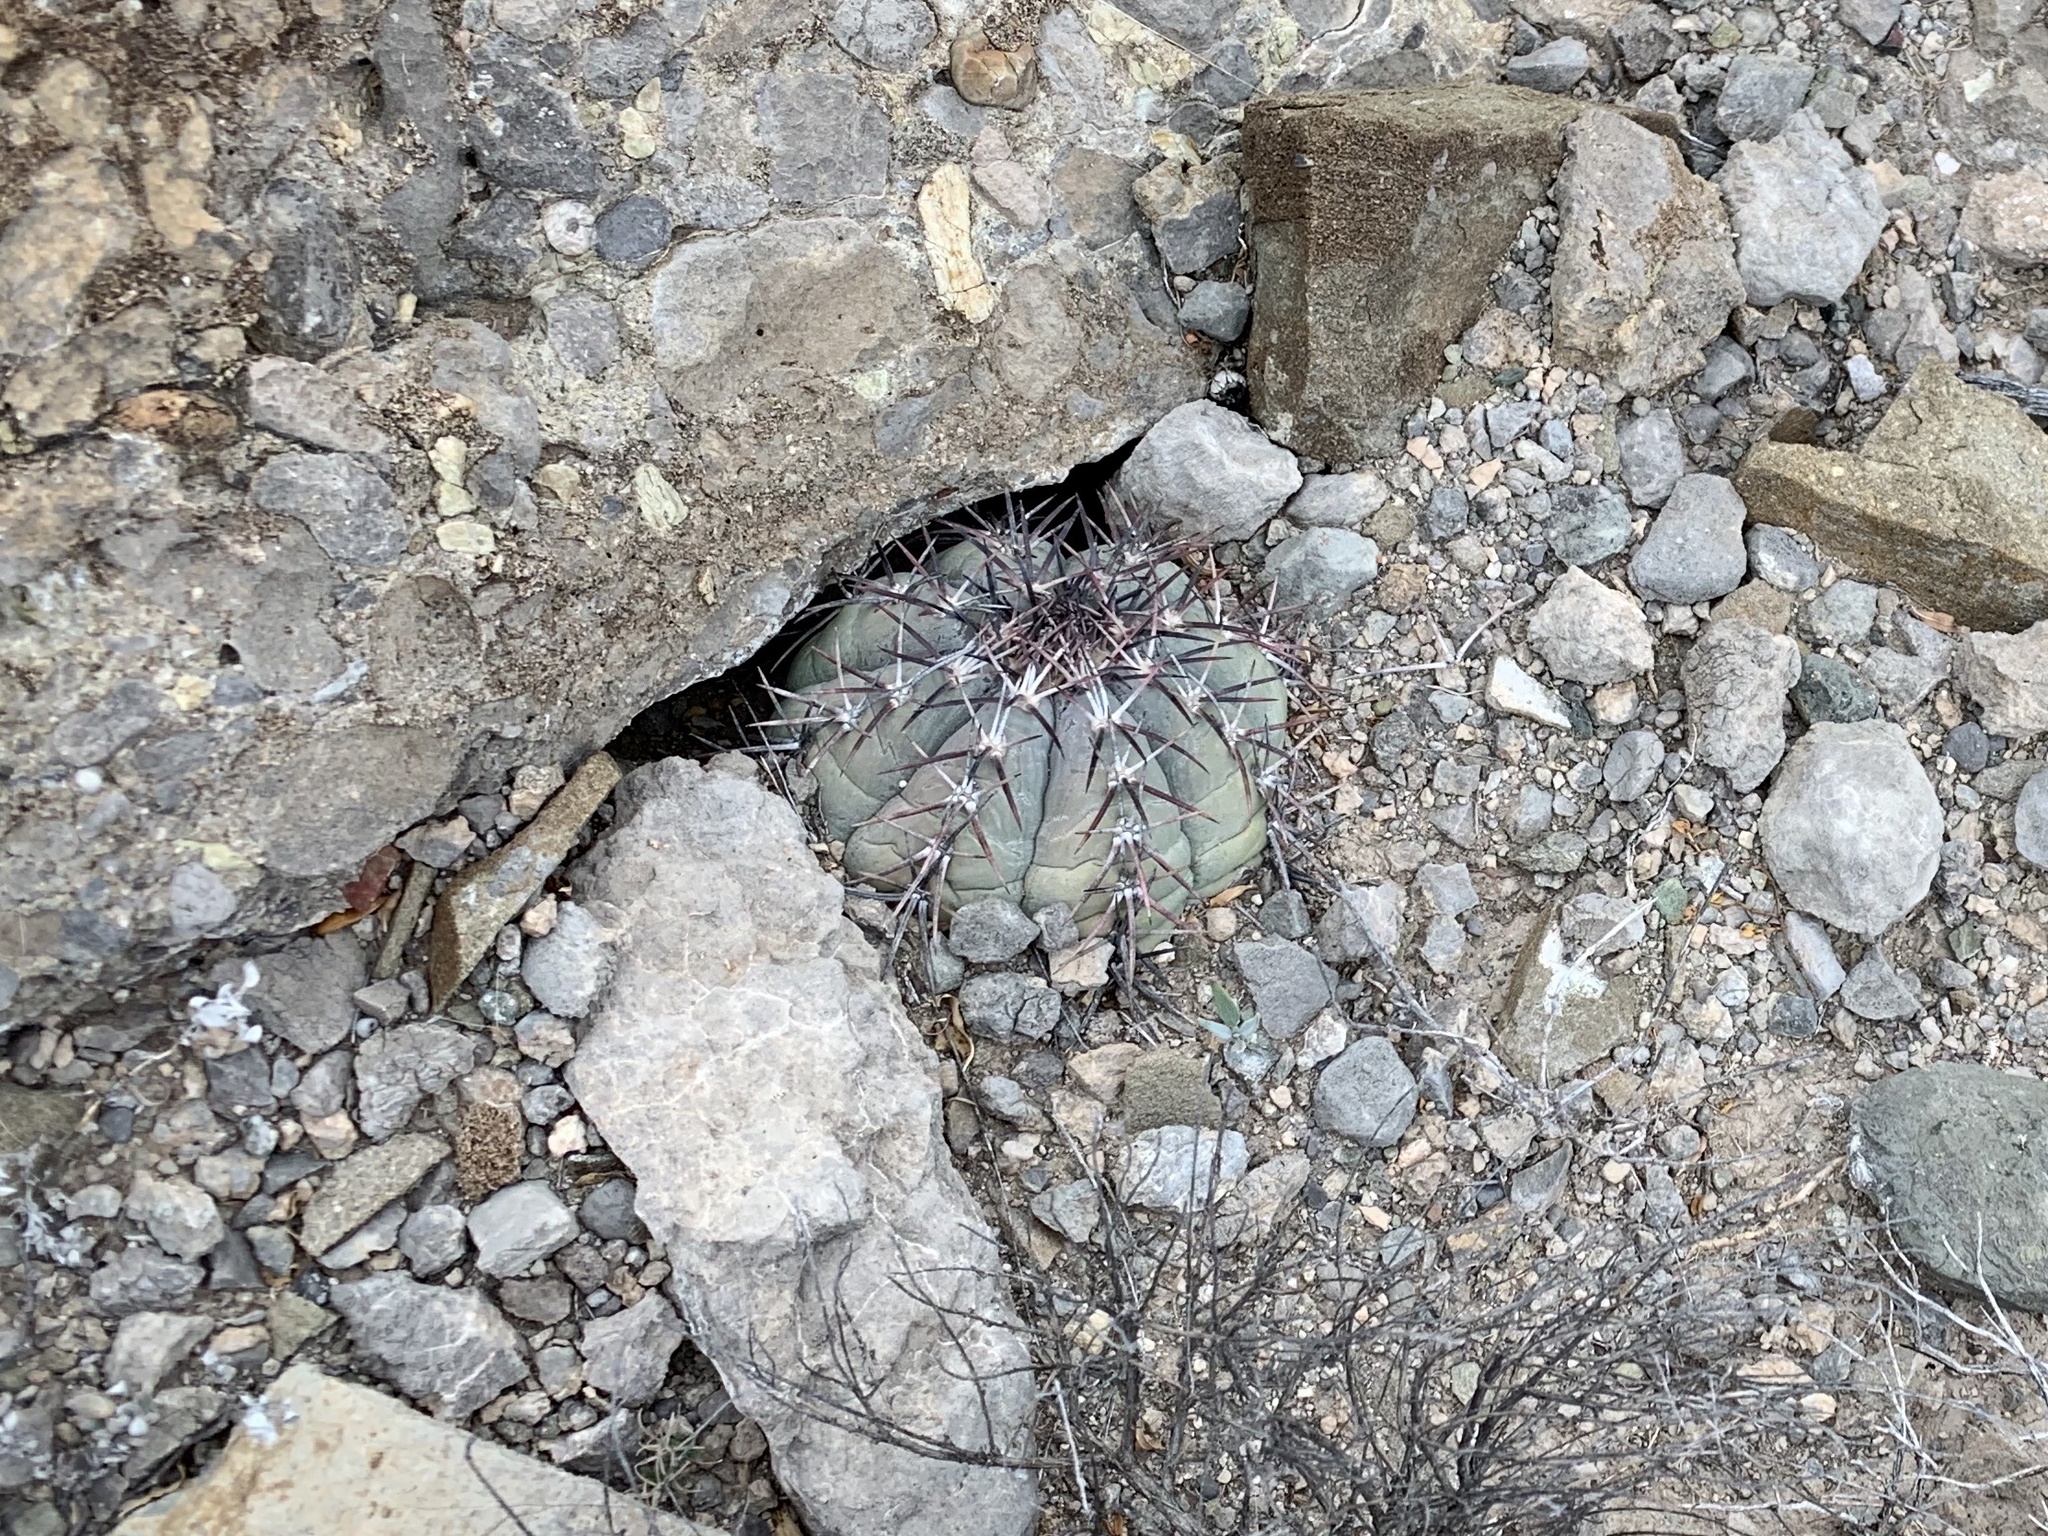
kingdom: Plantae
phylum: Tracheophyta
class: Magnoliopsida
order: Caryophyllales
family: Cactaceae
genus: Echinocactus
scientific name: Echinocactus horizonthalonius
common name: Devilshead
